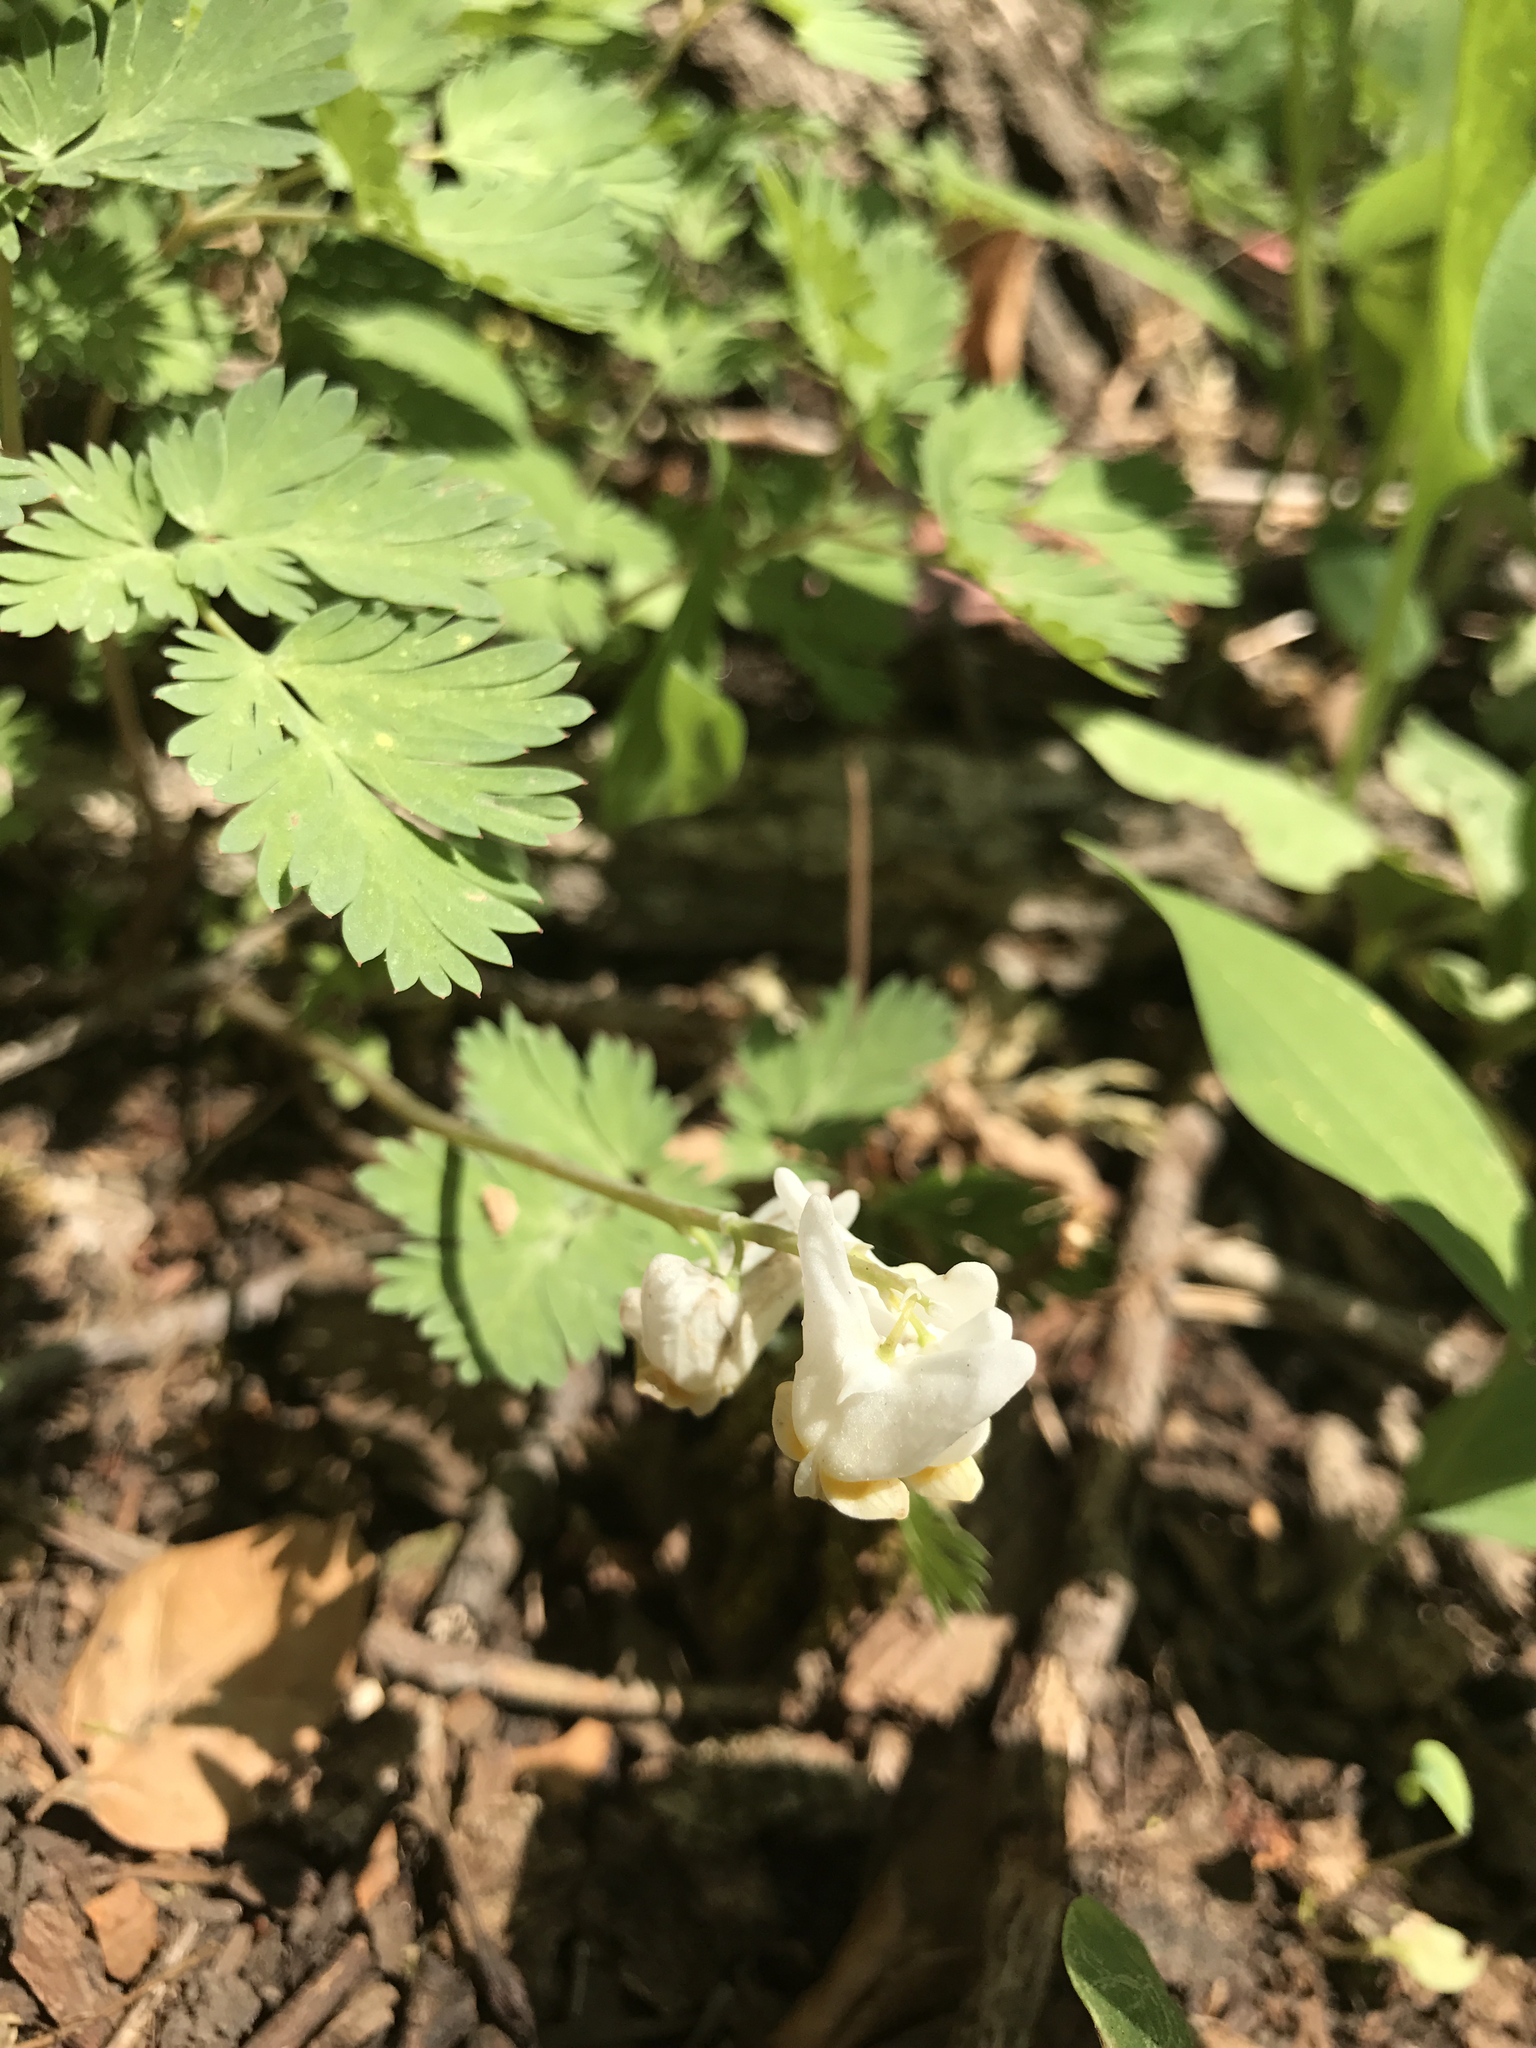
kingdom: Plantae
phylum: Tracheophyta
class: Magnoliopsida
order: Ranunculales
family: Papaveraceae
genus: Dicentra
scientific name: Dicentra cucullaria
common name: Dutchman's breeches
